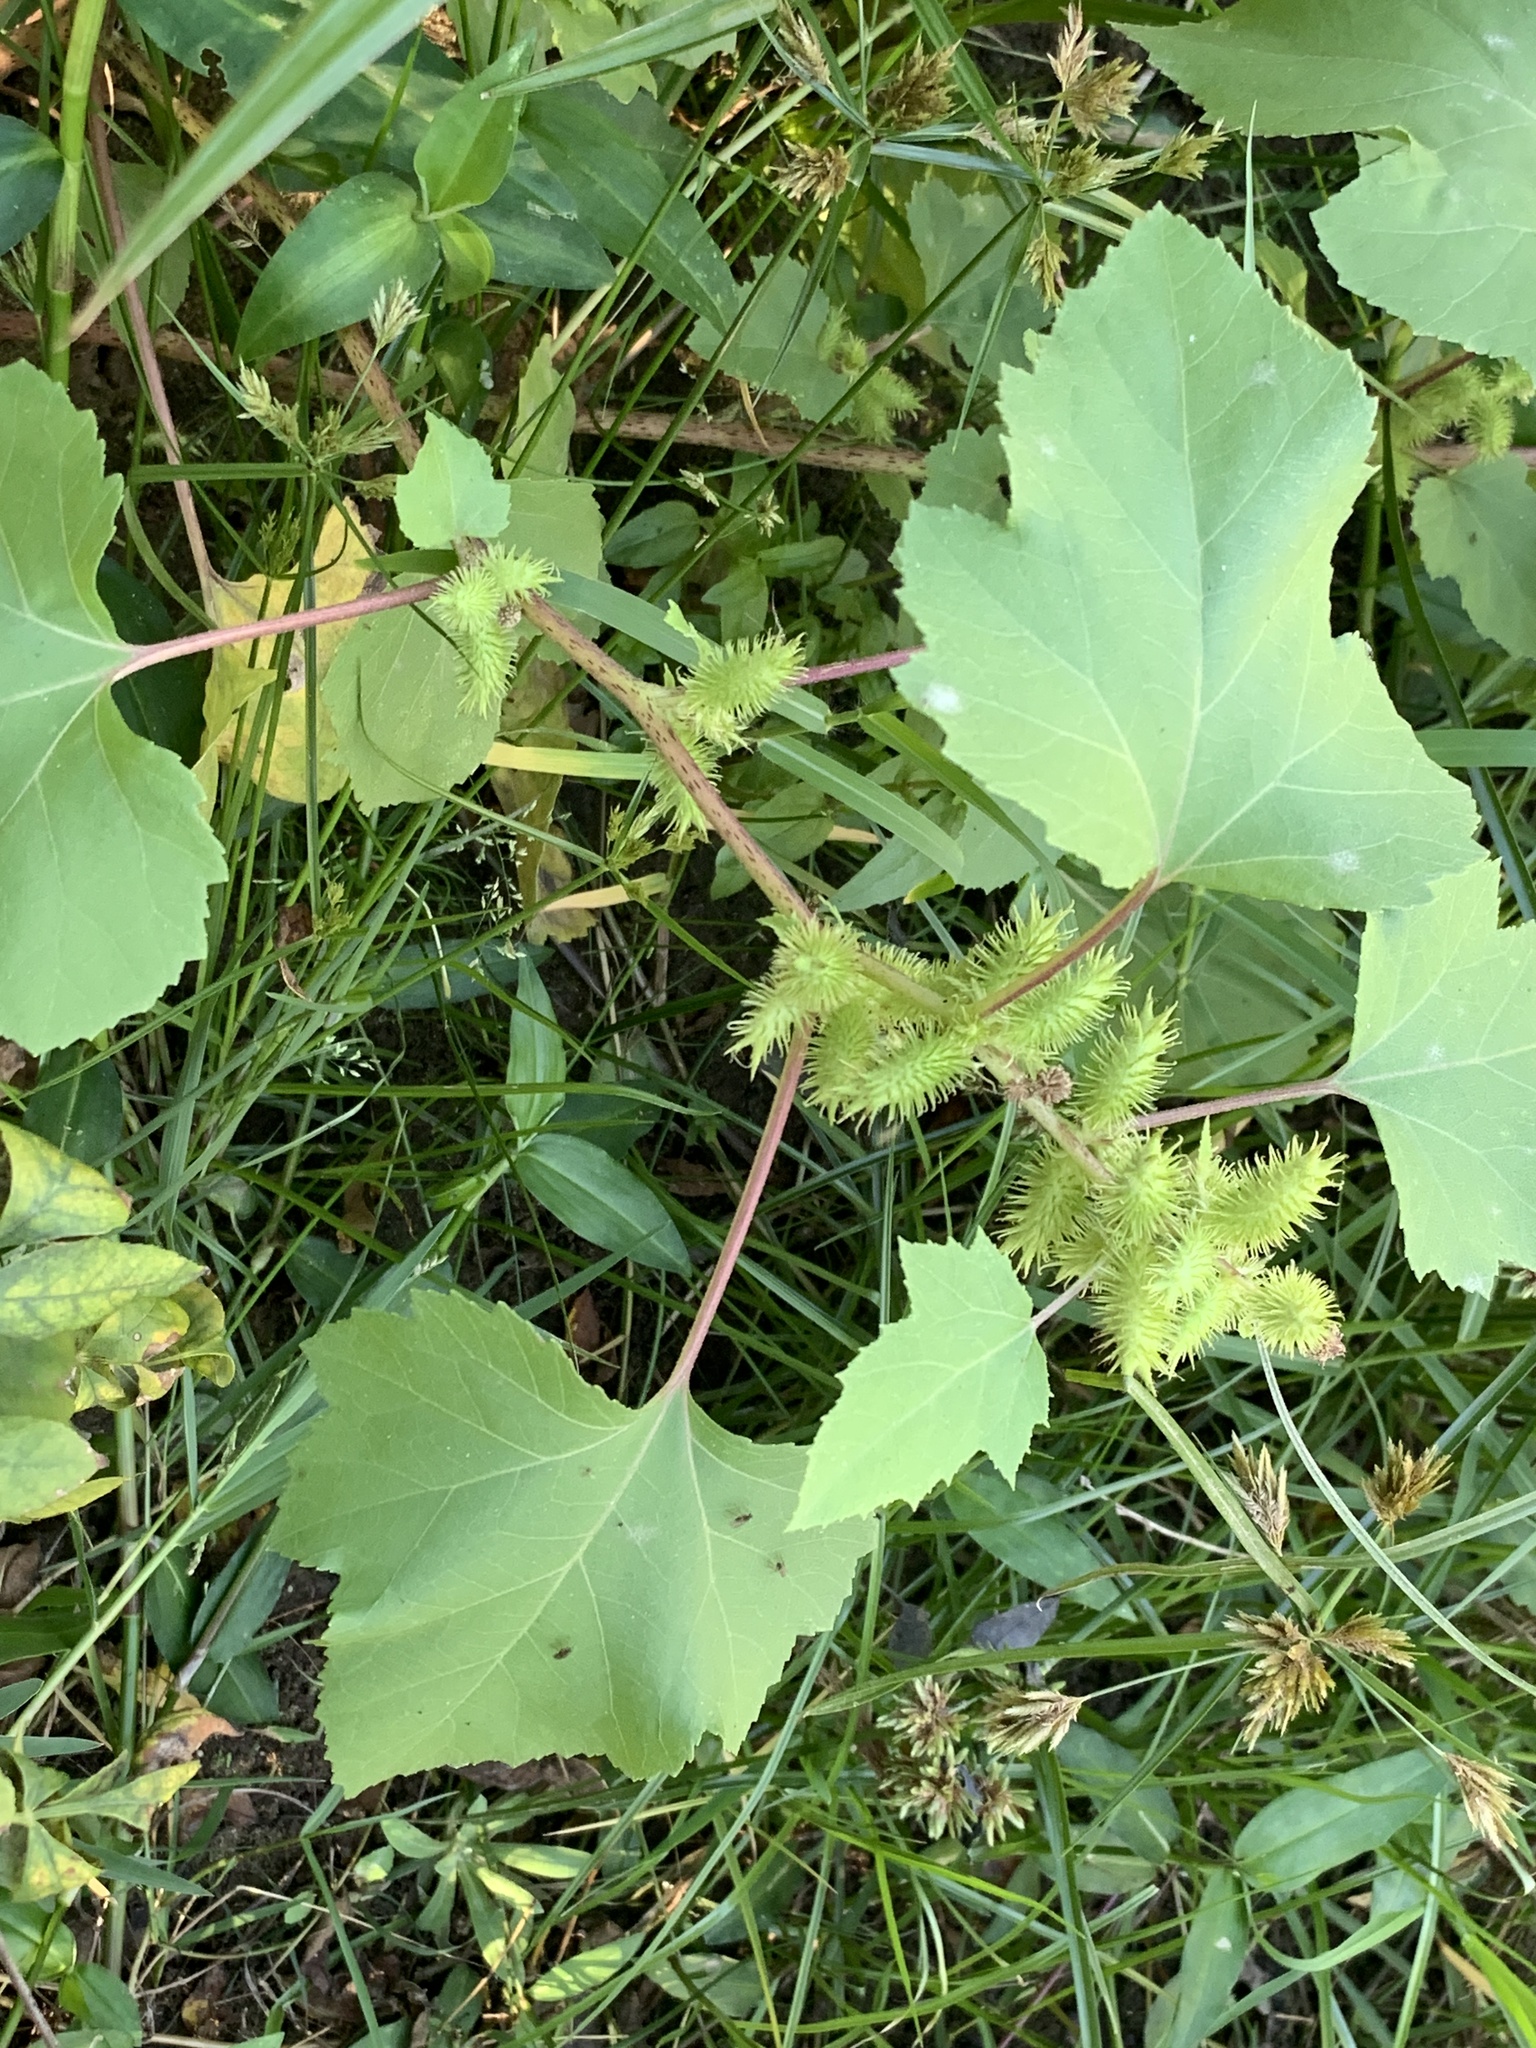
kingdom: Plantae
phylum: Tracheophyta
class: Magnoliopsida
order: Asterales
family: Asteraceae
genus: Xanthium
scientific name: Xanthium strumarium
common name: Rough cocklebur
